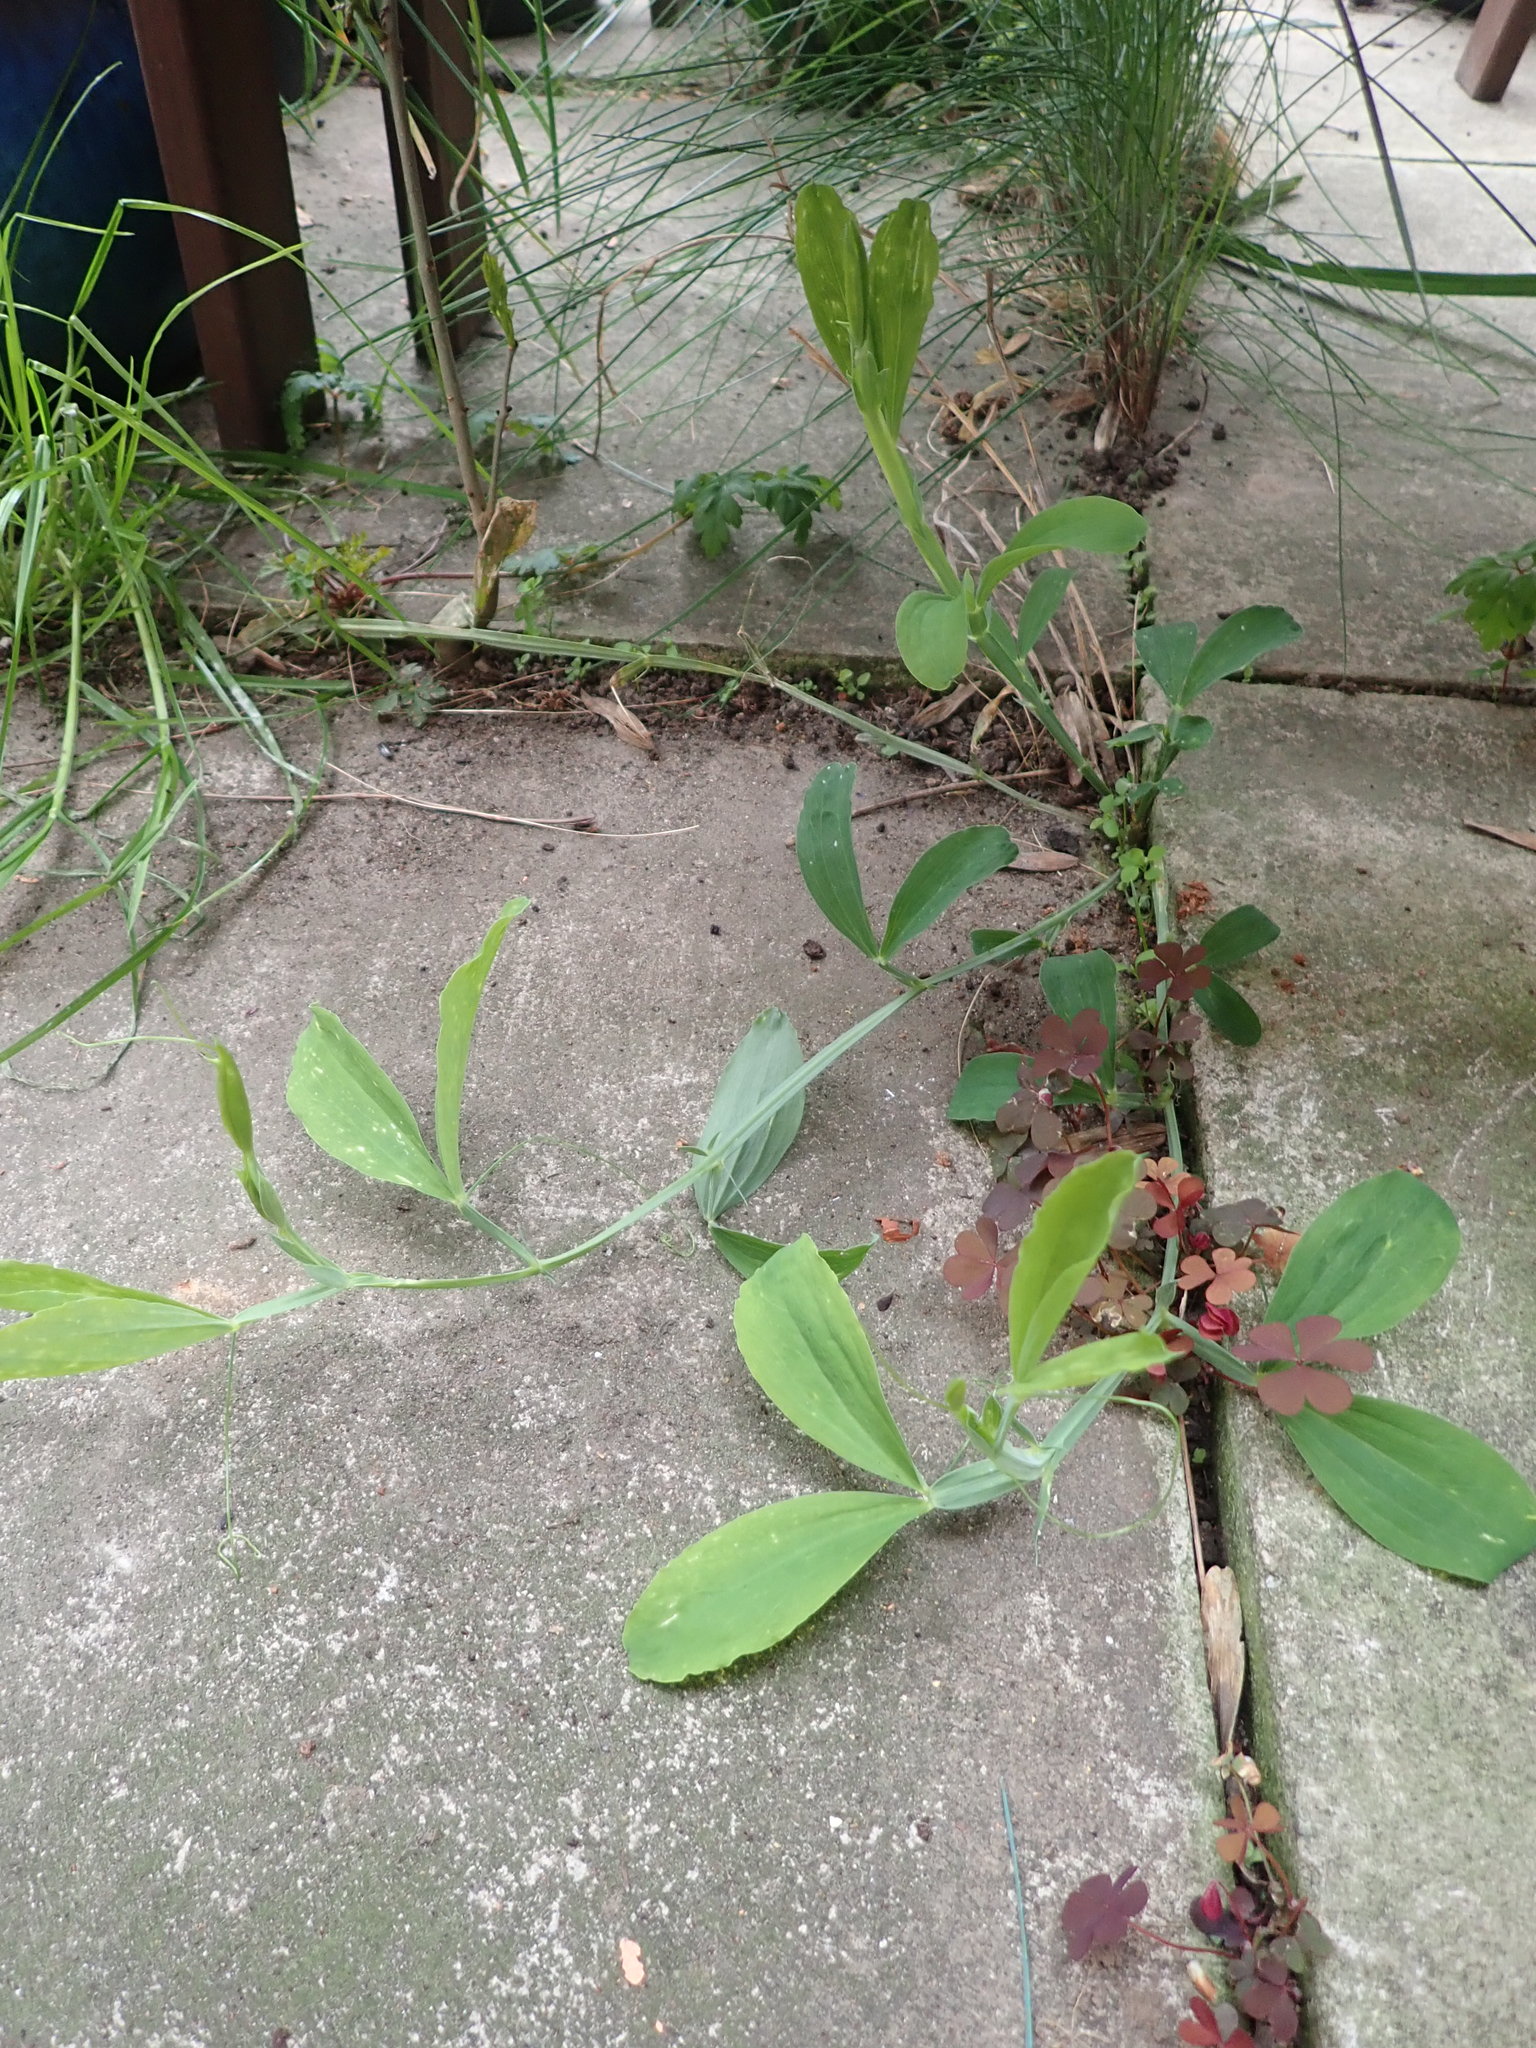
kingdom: Plantae
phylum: Tracheophyta
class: Magnoliopsida
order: Fabales
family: Fabaceae
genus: Lathyrus
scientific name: Lathyrus latifolius
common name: Perennial pea
